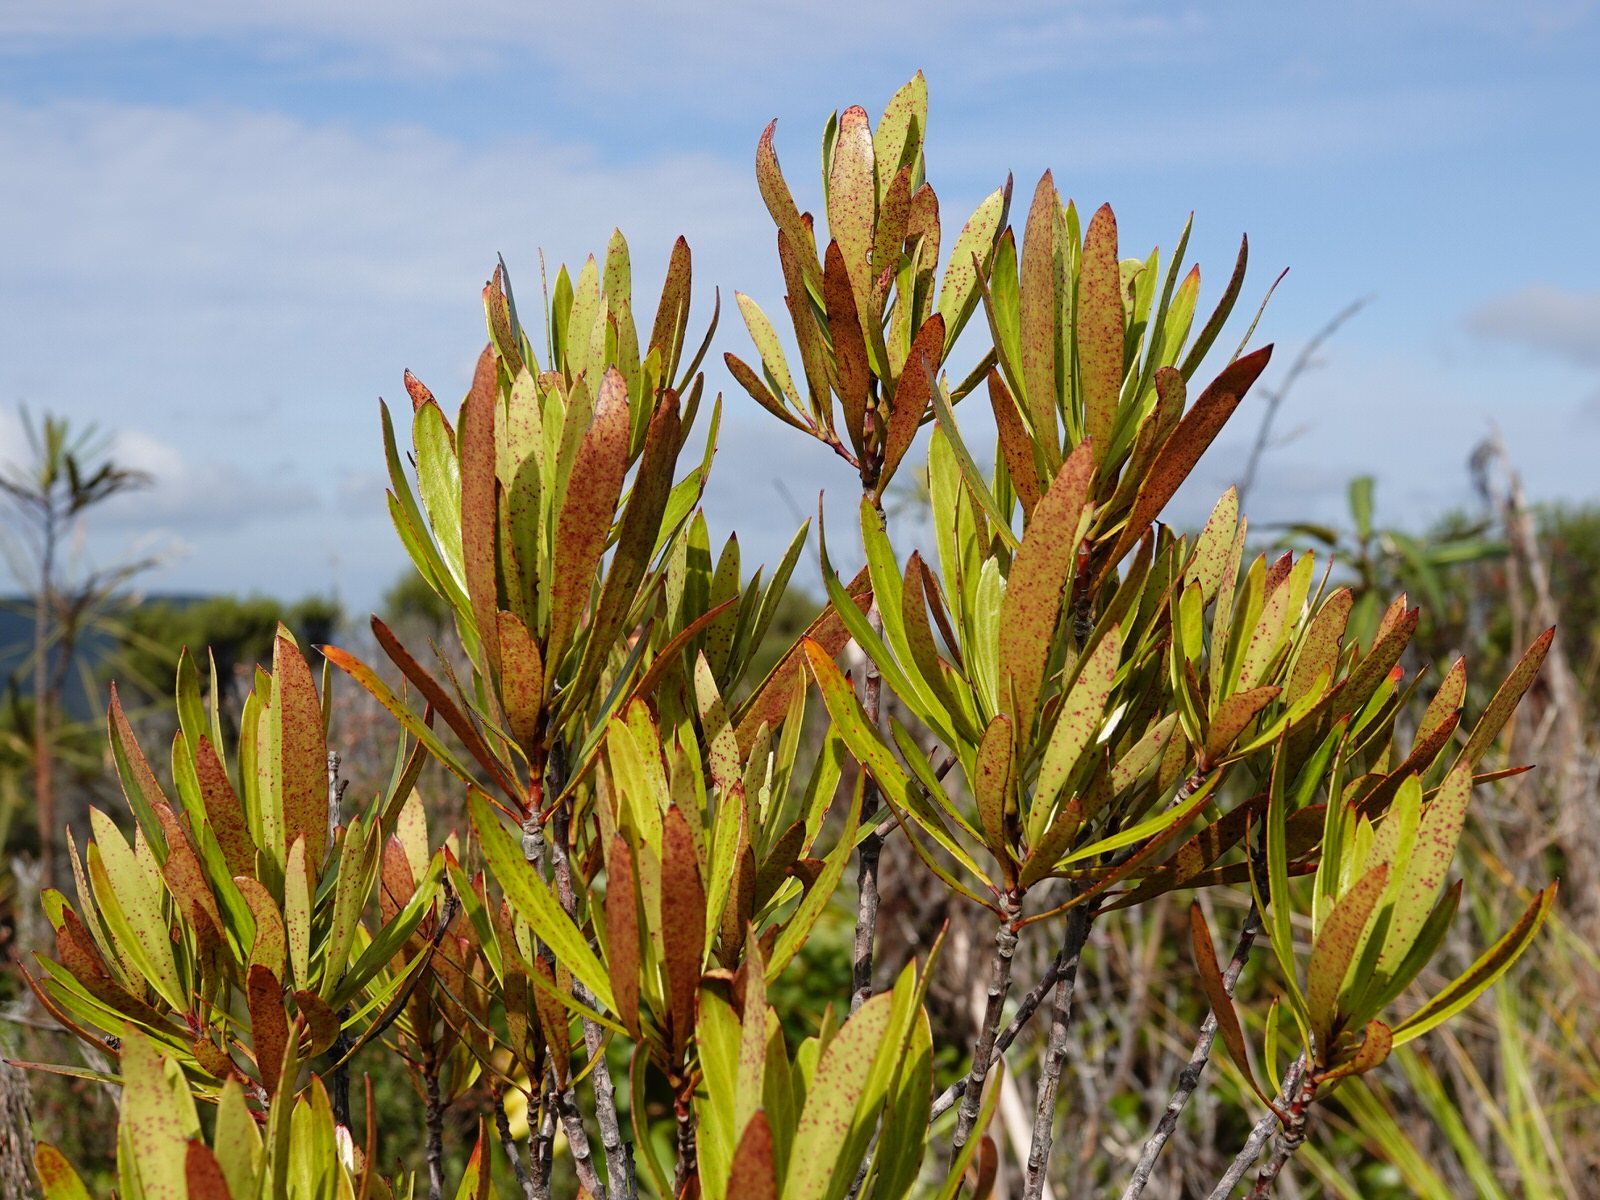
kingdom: Plantae
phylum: Tracheophyta
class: Magnoliopsida
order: Proteales
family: Proteaceae
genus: Toronia
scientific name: Toronia toru
